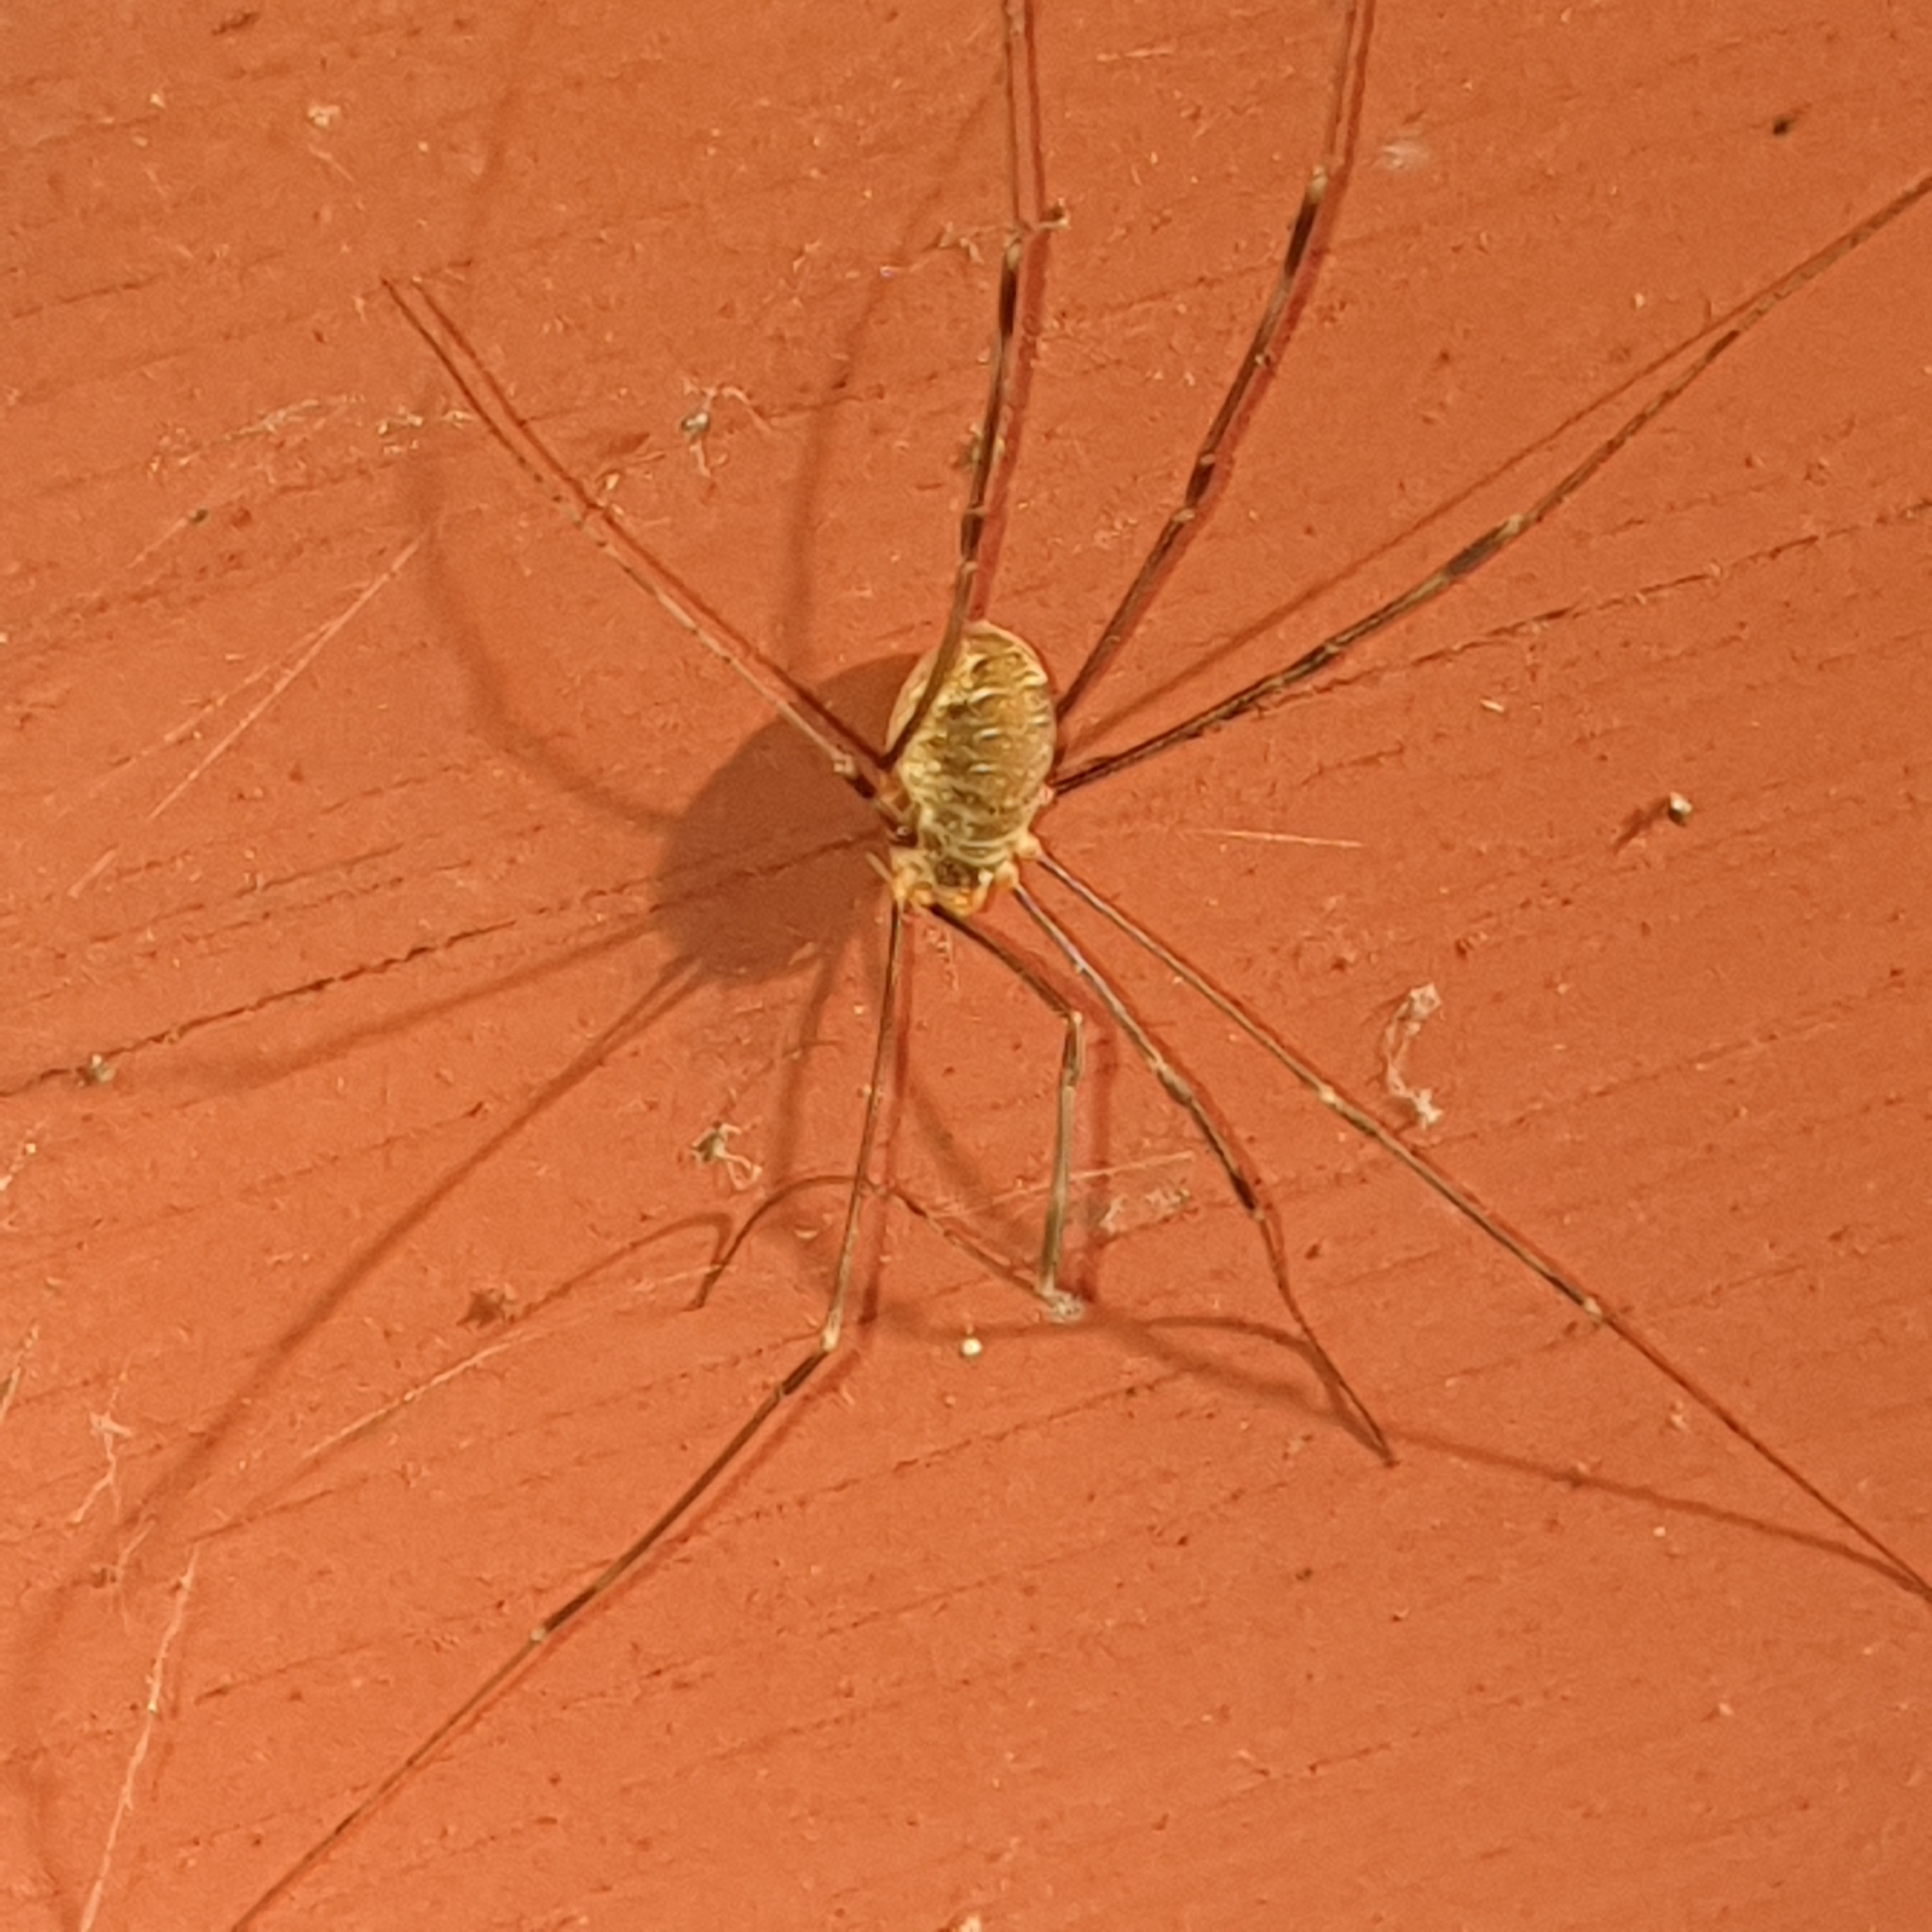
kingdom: Animalia
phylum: Arthropoda
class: Arachnida
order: Opiliones
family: Phalangiidae
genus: Opilio
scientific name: Opilio canestrinii
